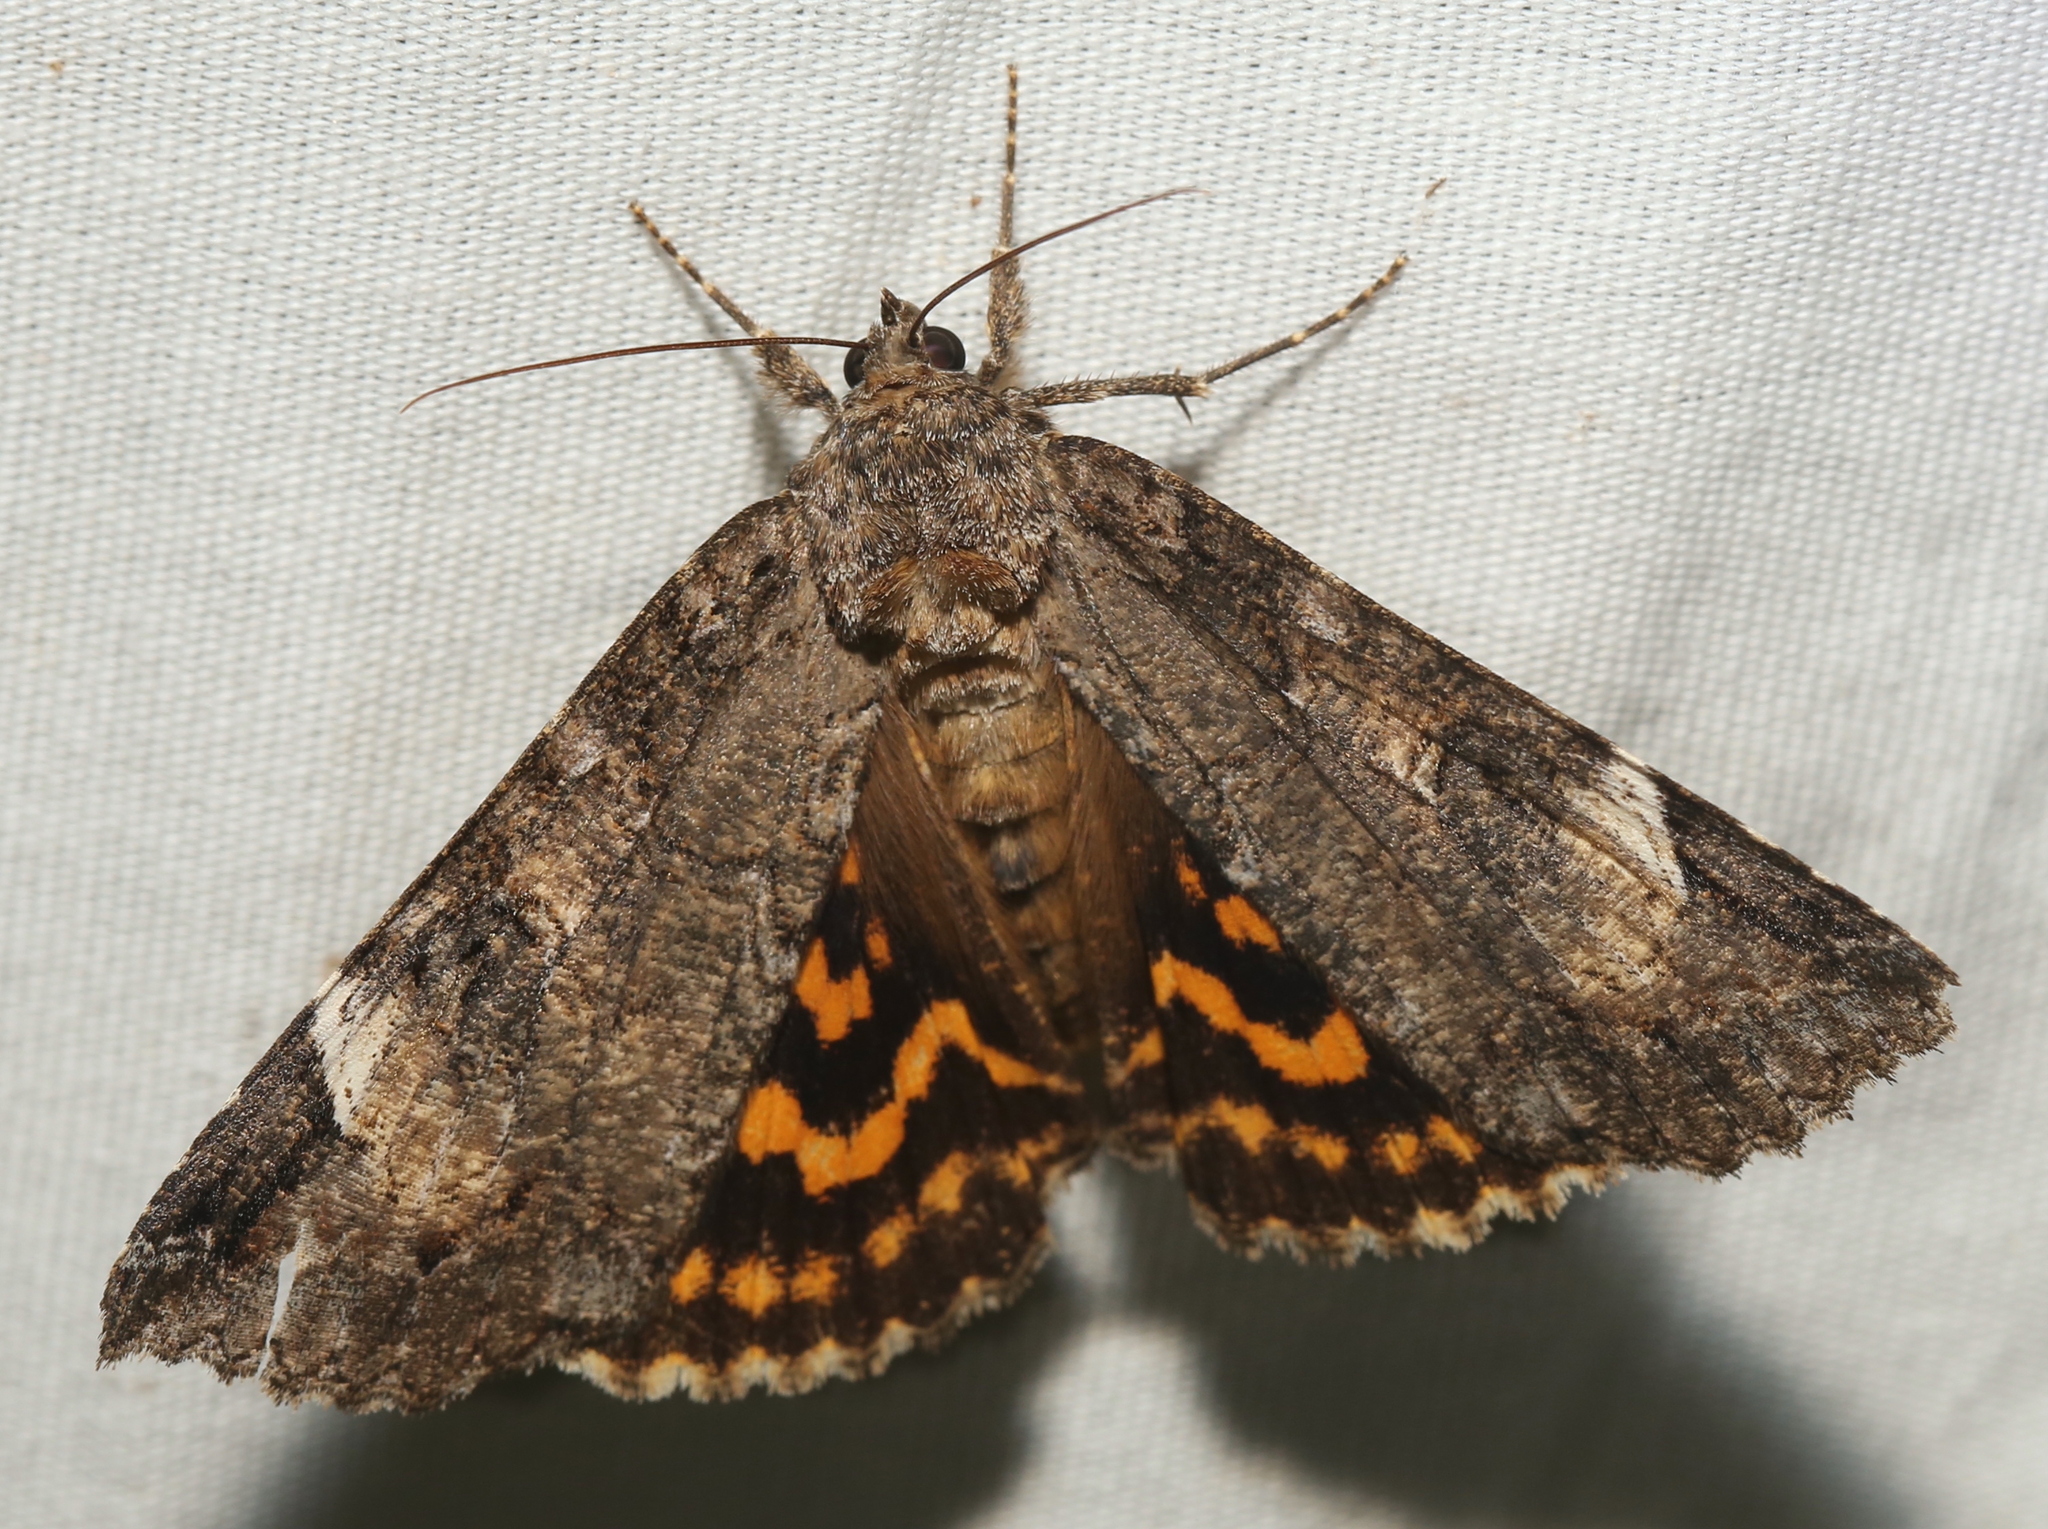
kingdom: Animalia
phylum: Arthropoda
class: Insecta
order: Lepidoptera
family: Erebidae
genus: Euparthenos
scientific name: Euparthenos nubilis
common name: Locust underwing
